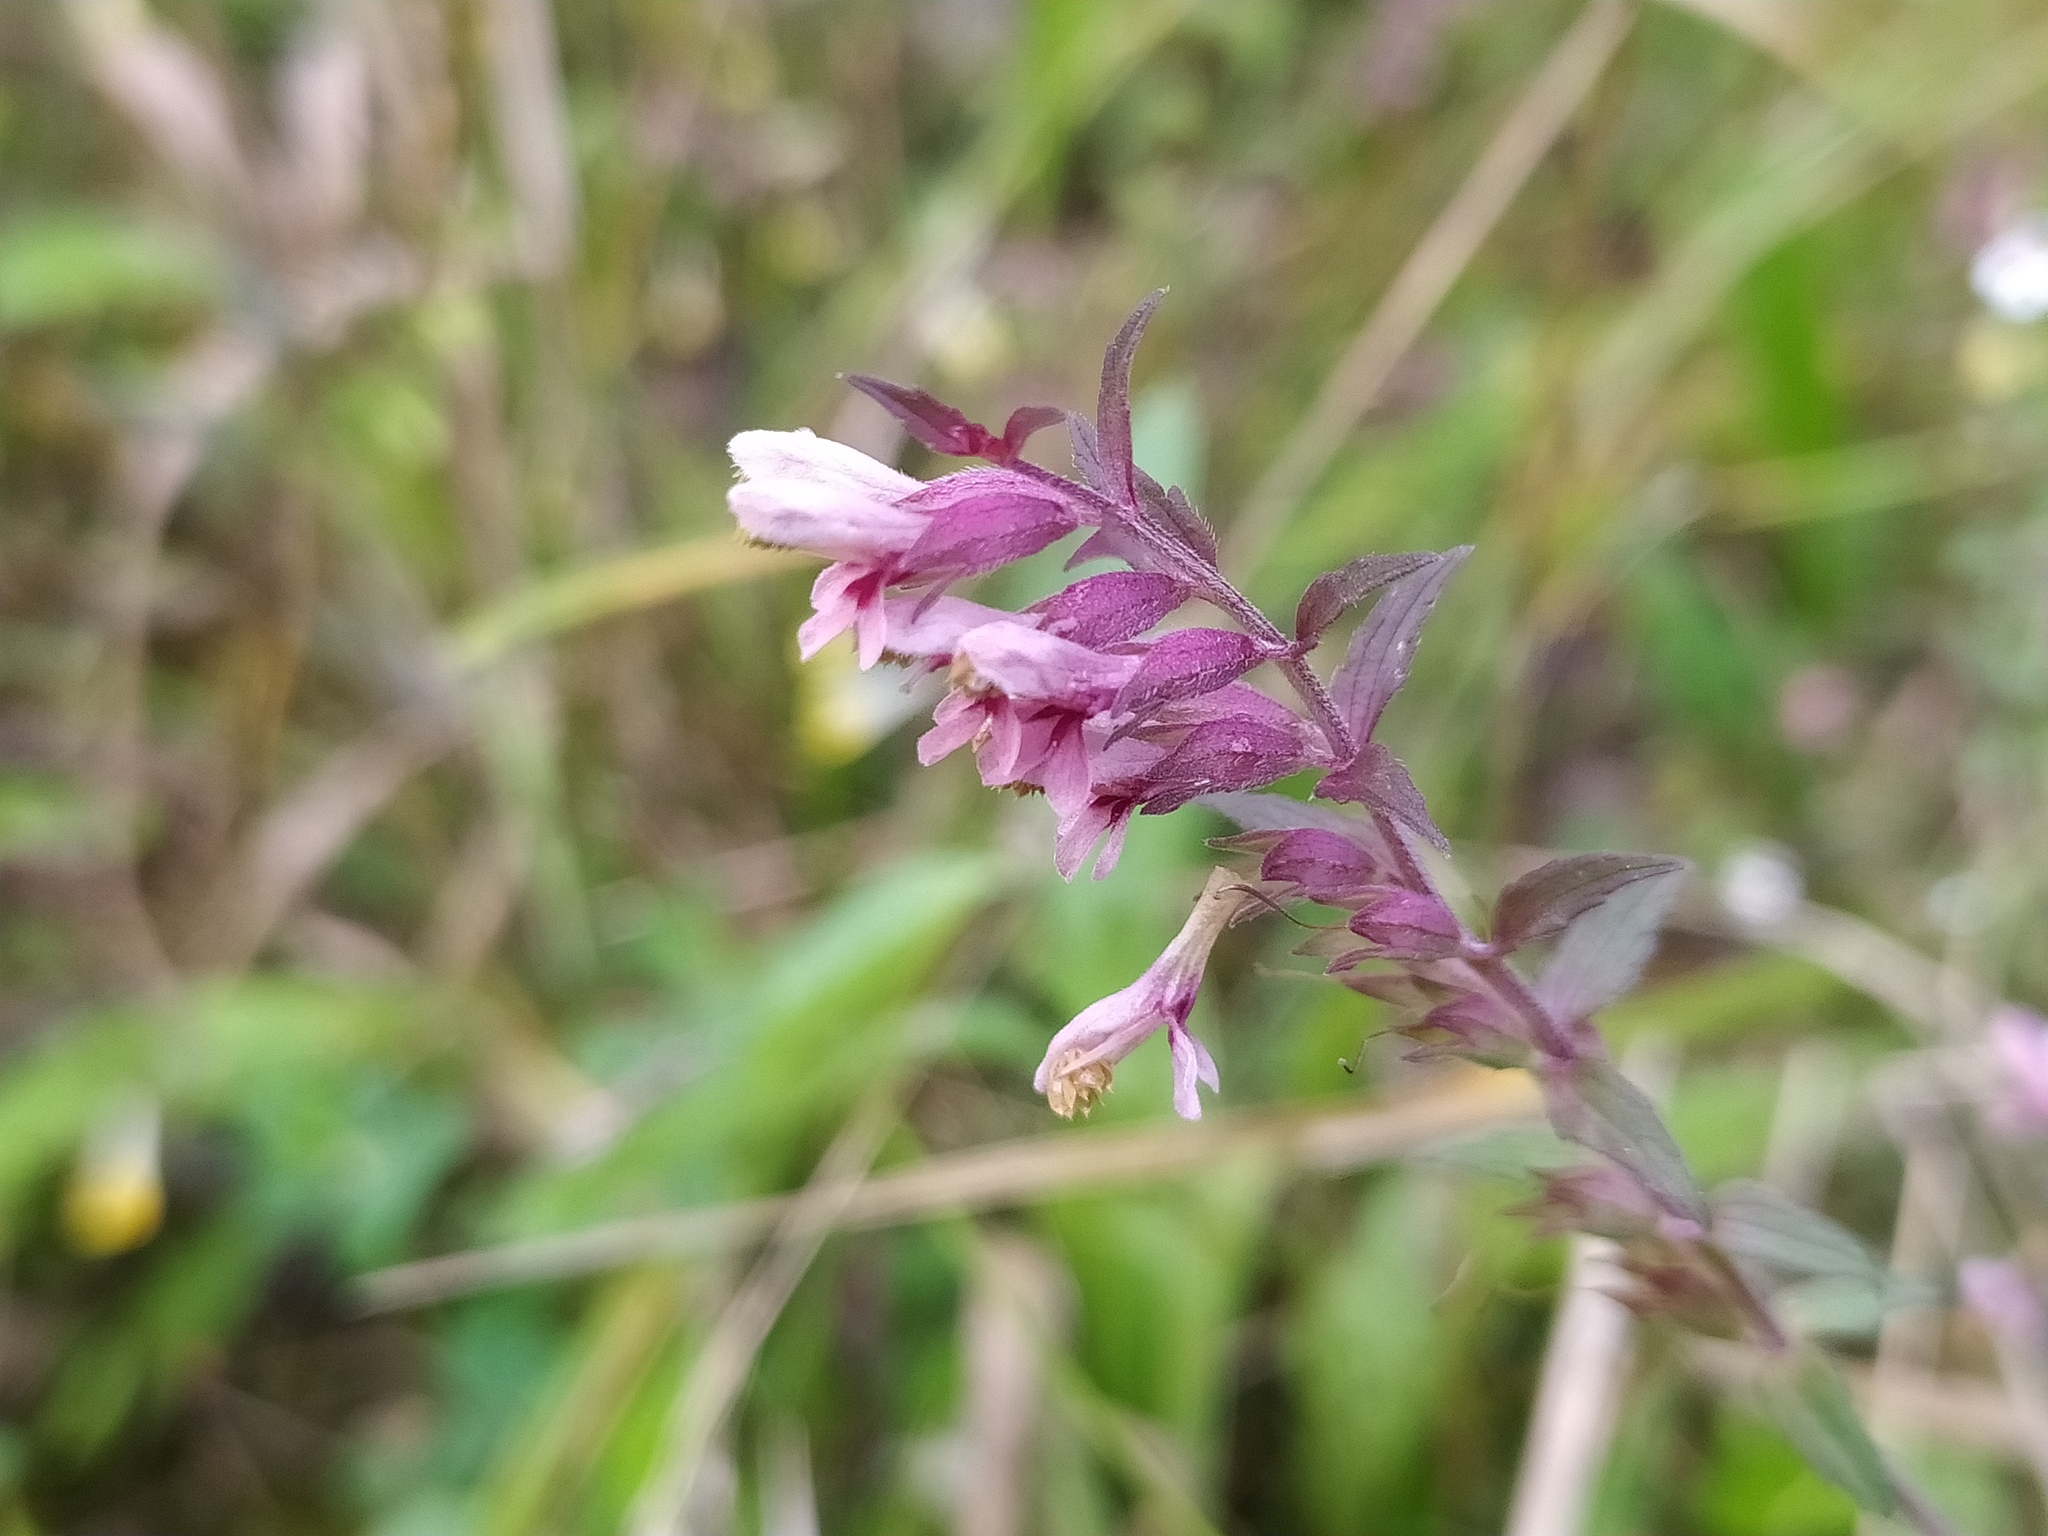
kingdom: Plantae
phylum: Tracheophyta
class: Magnoliopsida
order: Lamiales
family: Orobanchaceae
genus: Odontites
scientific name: Odontites vulgaris
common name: Broomrape
